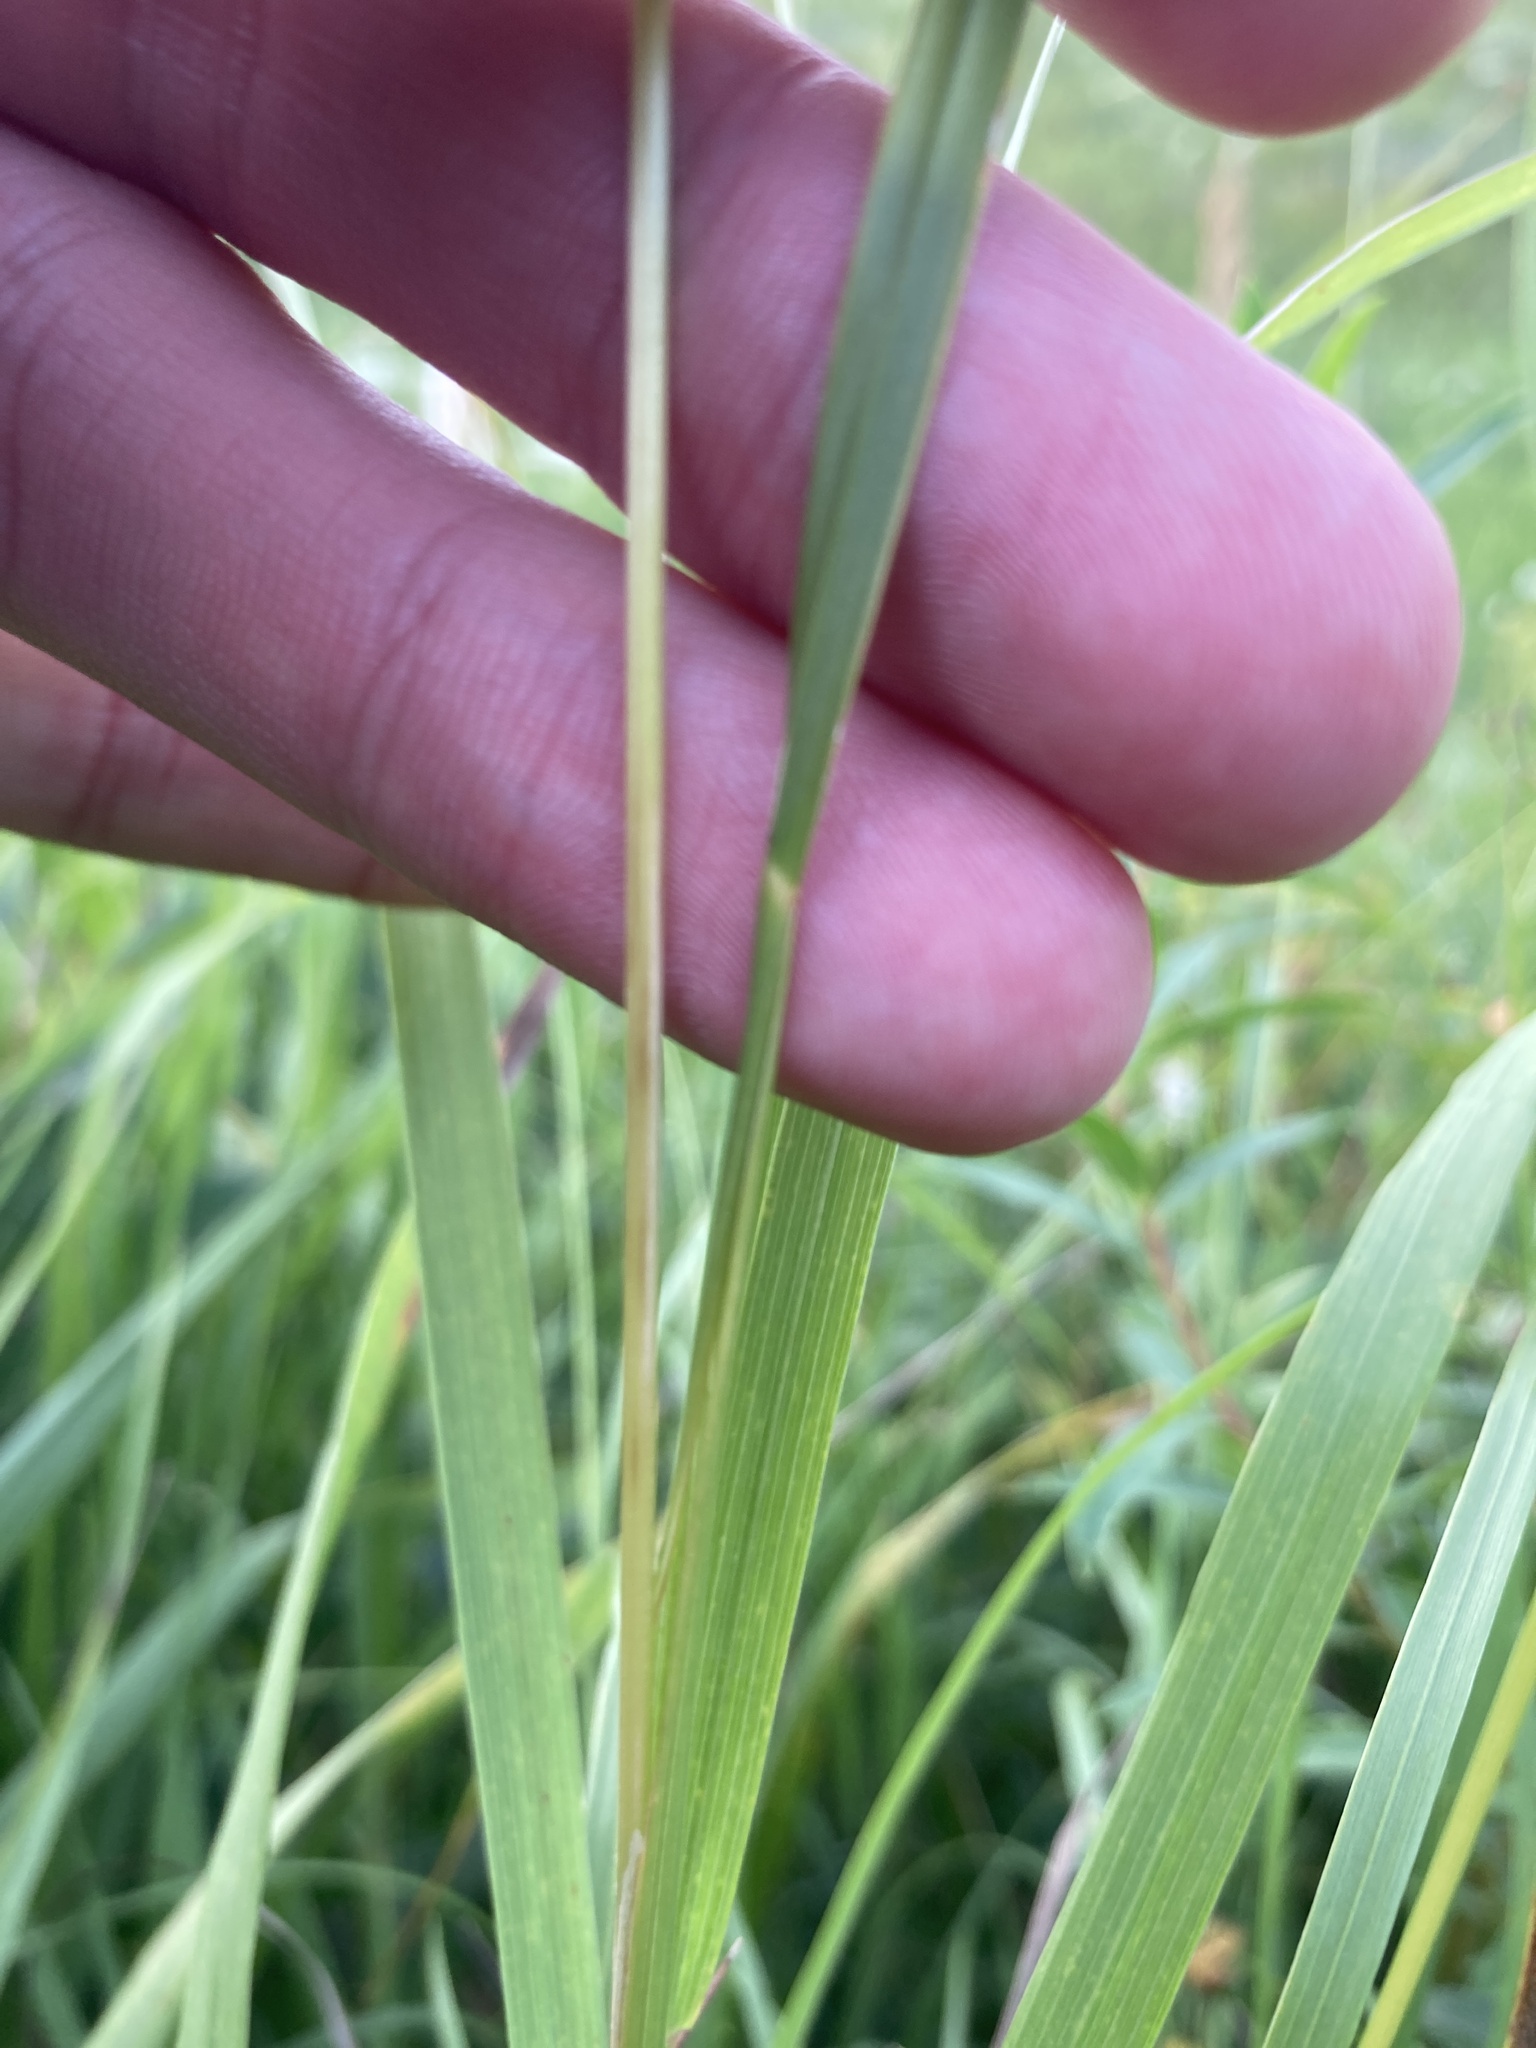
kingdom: Plantae
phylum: Tracheophyta
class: Liliopsida
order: Poales
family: Poaceae
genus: Melica
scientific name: Melica transsilvanica
